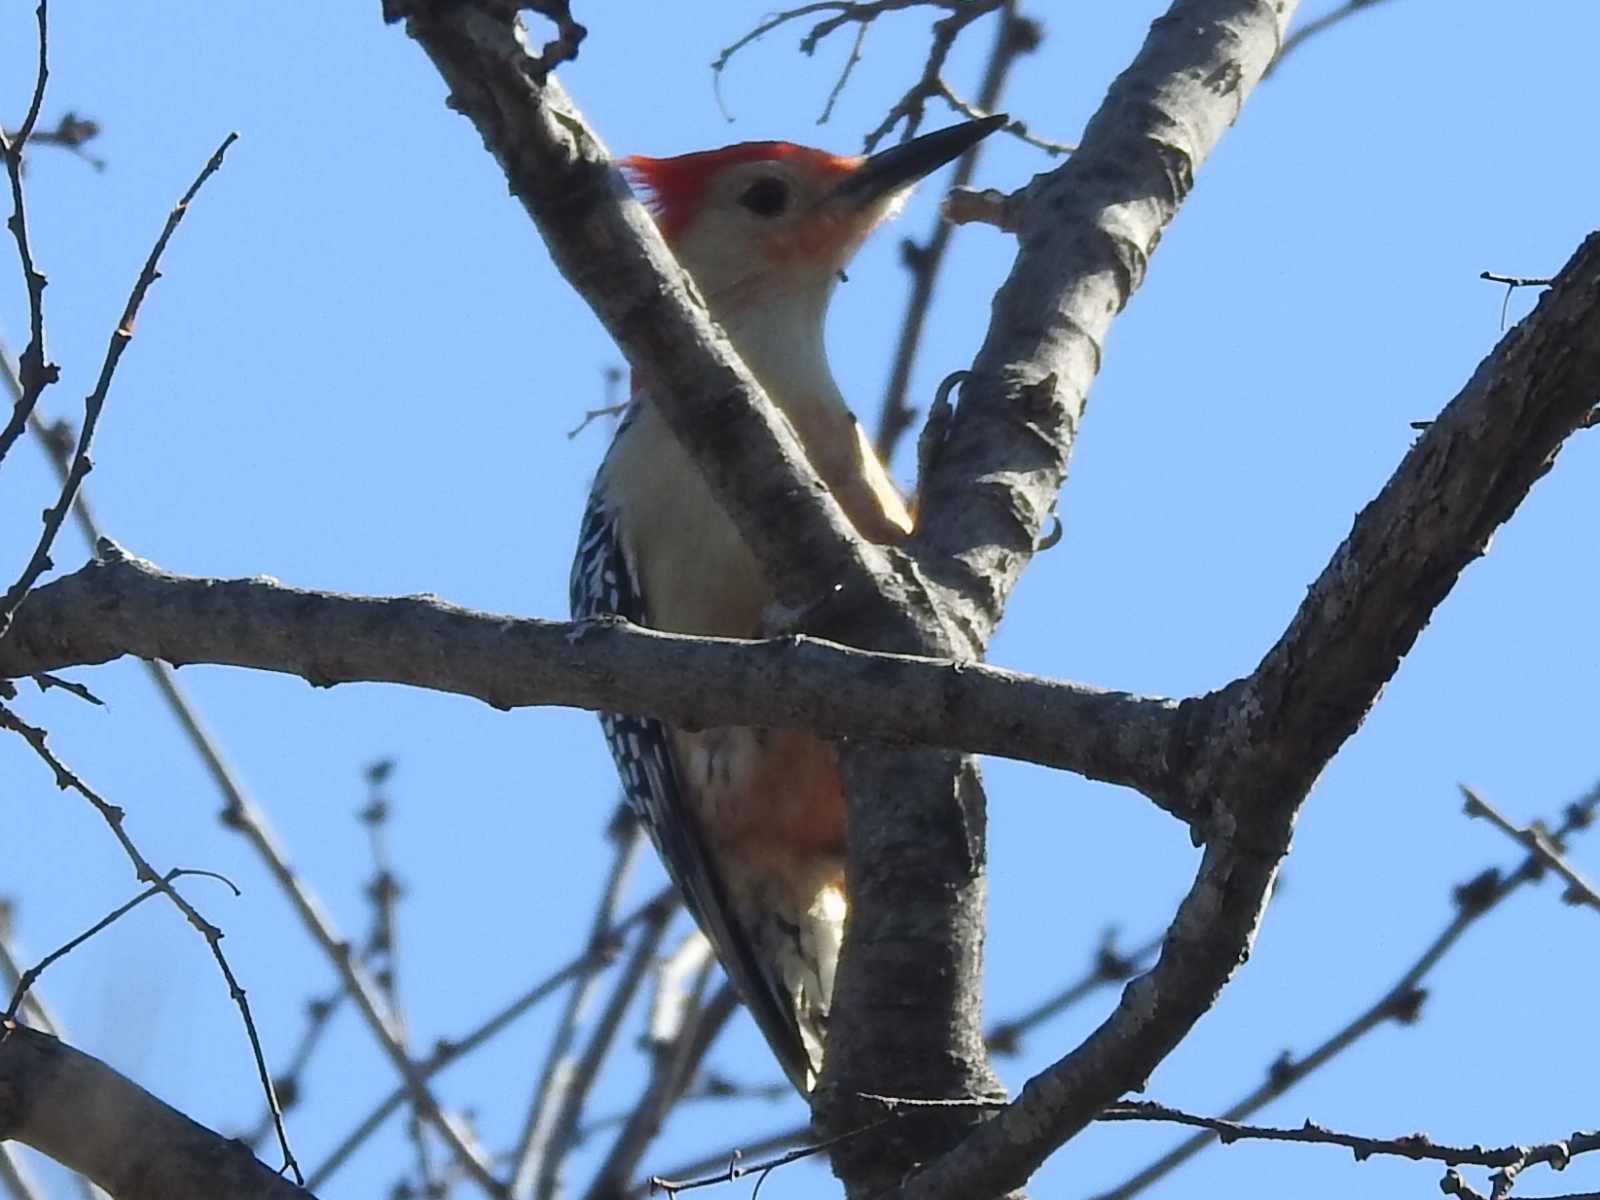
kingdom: Animalia
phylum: Chordata
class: Aves
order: Piciformes
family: Picidae
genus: Melanerpes
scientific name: Melanerpes carolinus
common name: Red-bellied woodpecker
